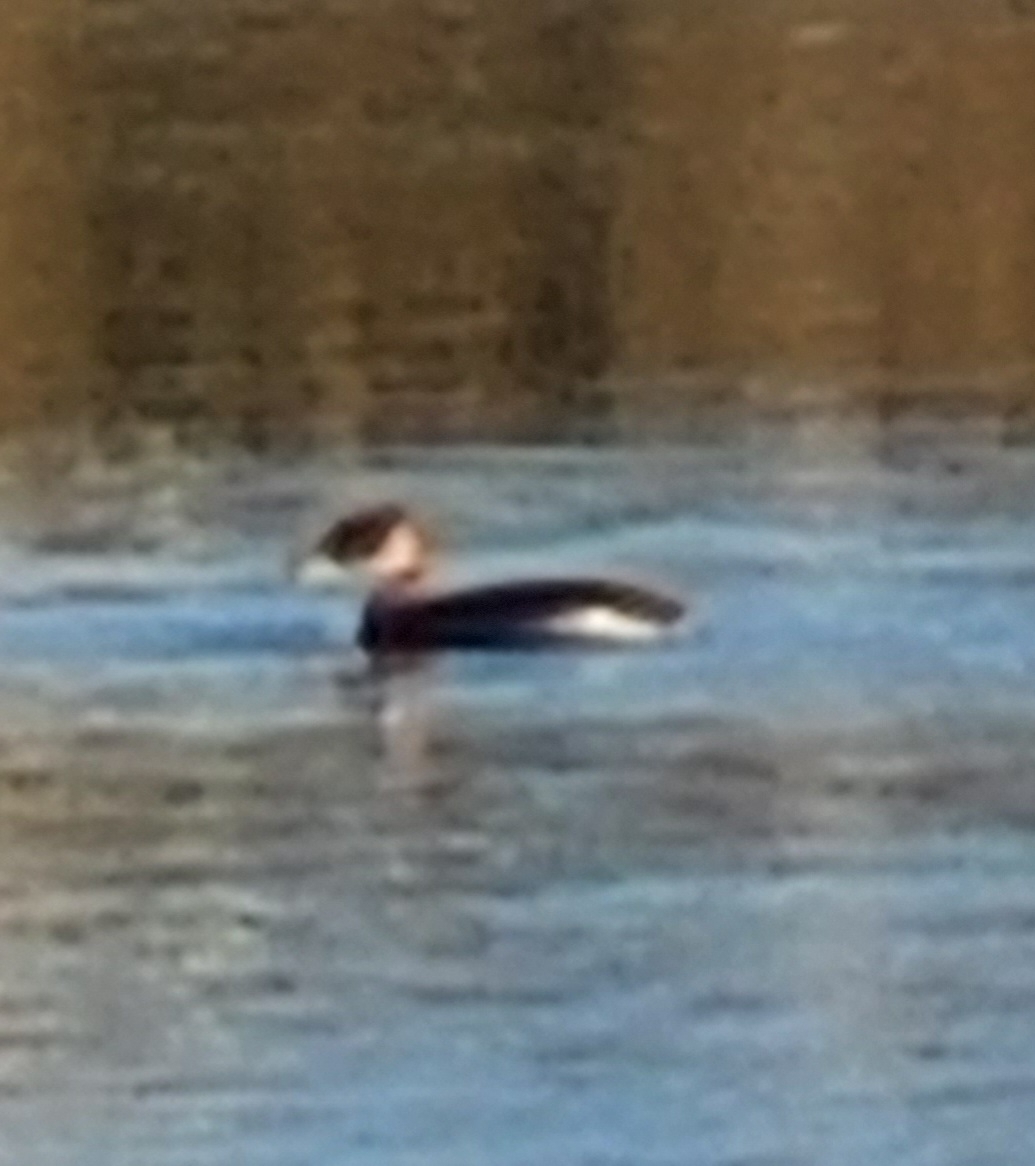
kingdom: Animalia
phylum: Chordata
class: Aves
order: Podicipediformes
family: Podicipedidae
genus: Podiceps
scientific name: Podiceps grisegena
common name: Red-necked grebe
